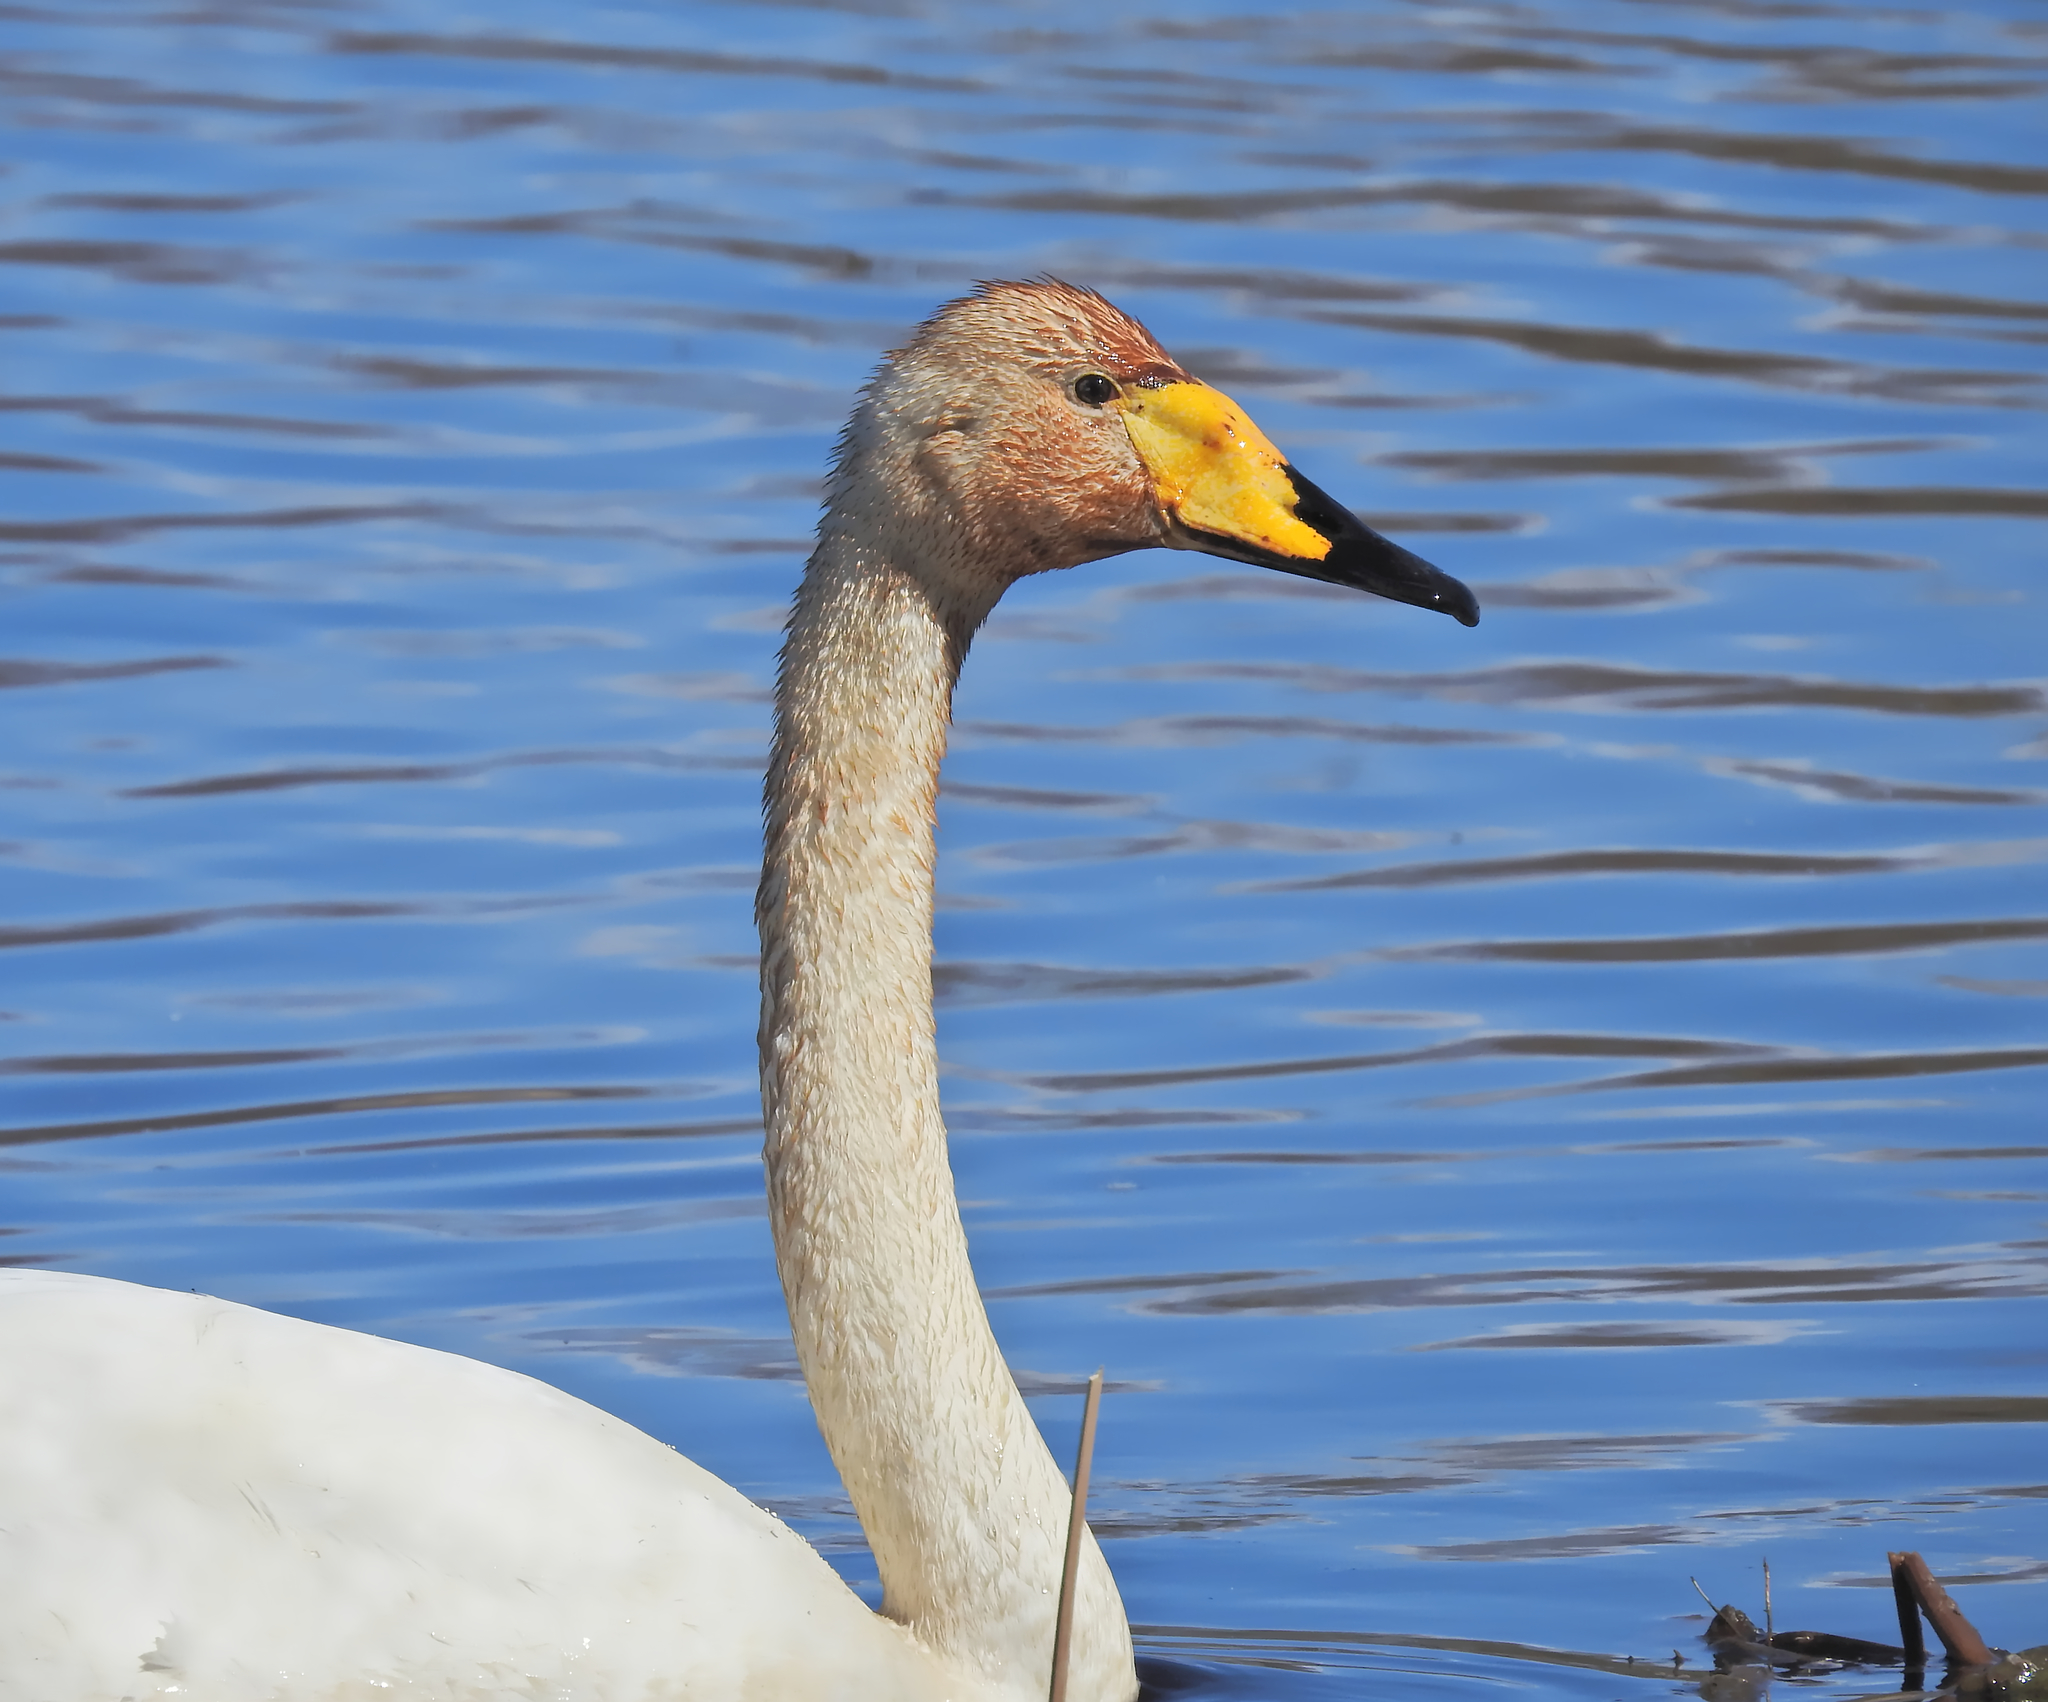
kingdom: Animalia
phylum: Chordata
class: Aves
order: Anseriformes
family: Anatidae
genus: Cygnus
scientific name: Cygnus cygnus
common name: Whooper swan
